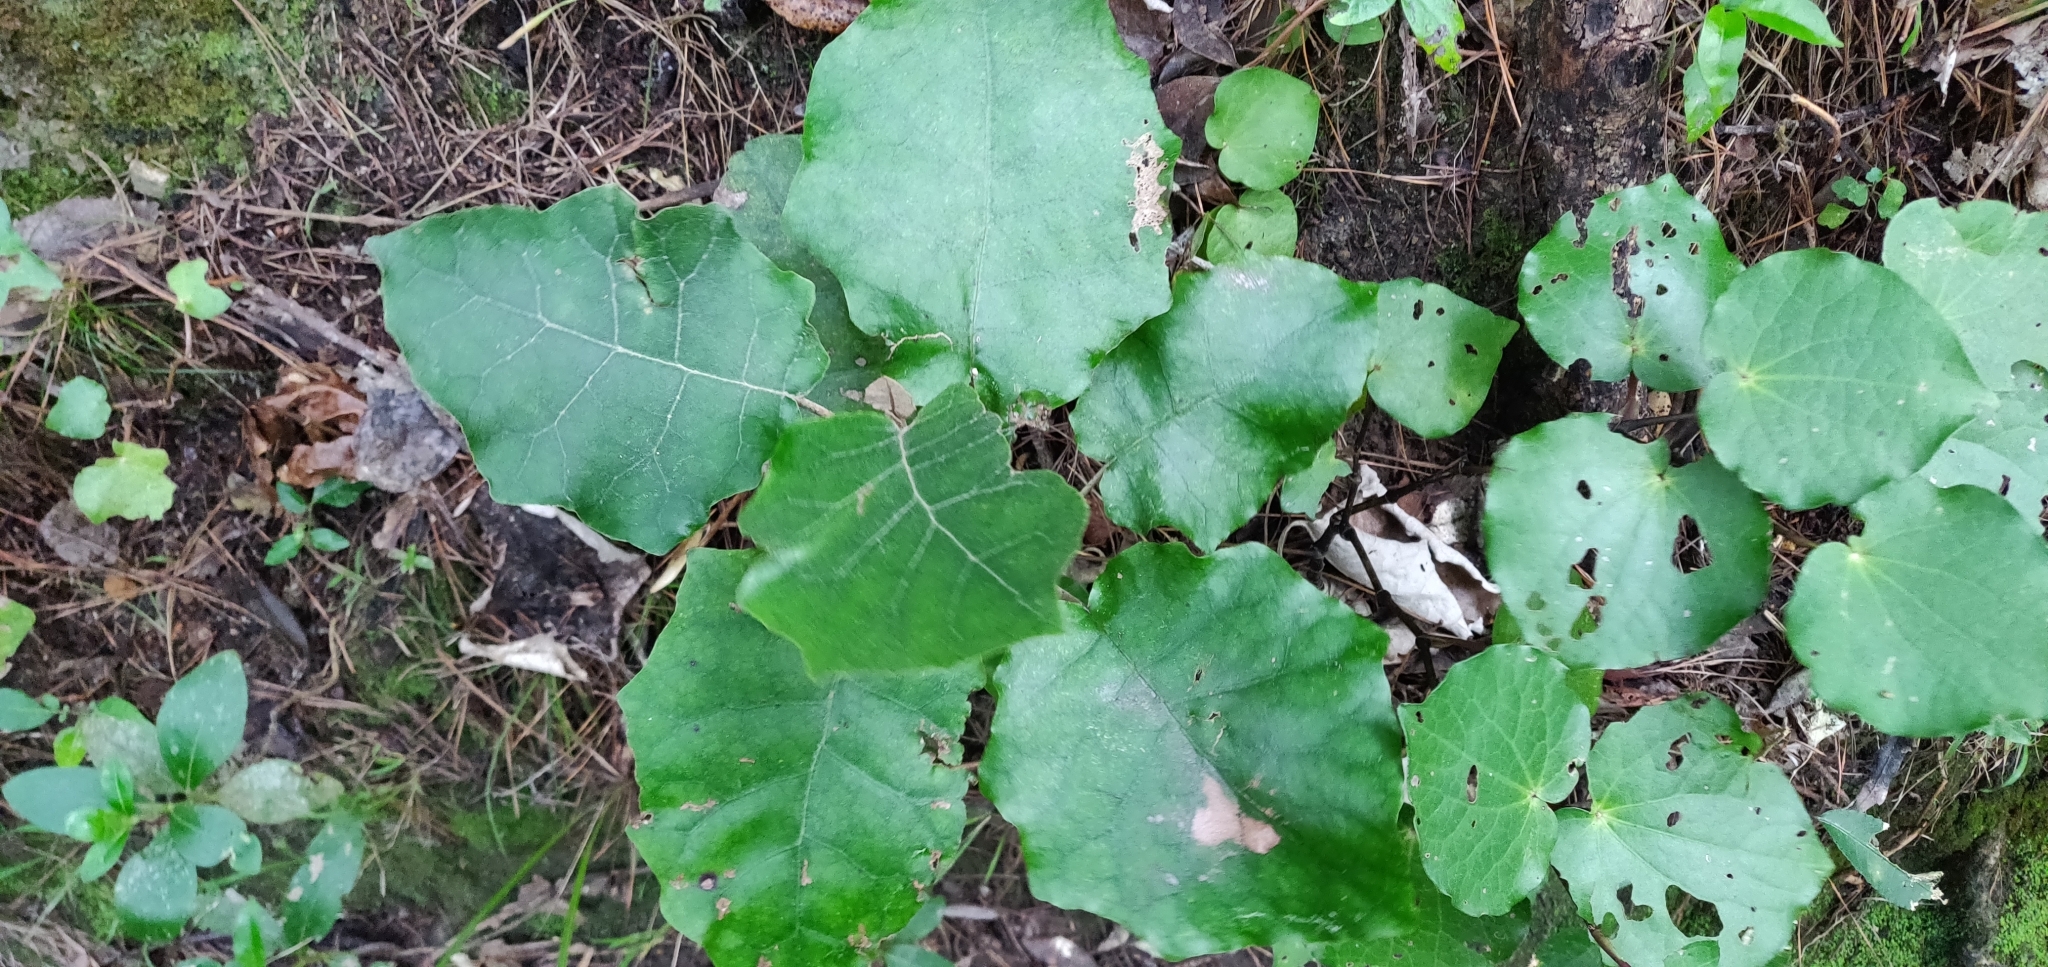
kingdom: Plantae
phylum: Tracheophyta
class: Magnoliopsida
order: Asterales
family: Asteraceae
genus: Brachyglottis
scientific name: Brachyglottis repanda
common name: Hedge ragwort
